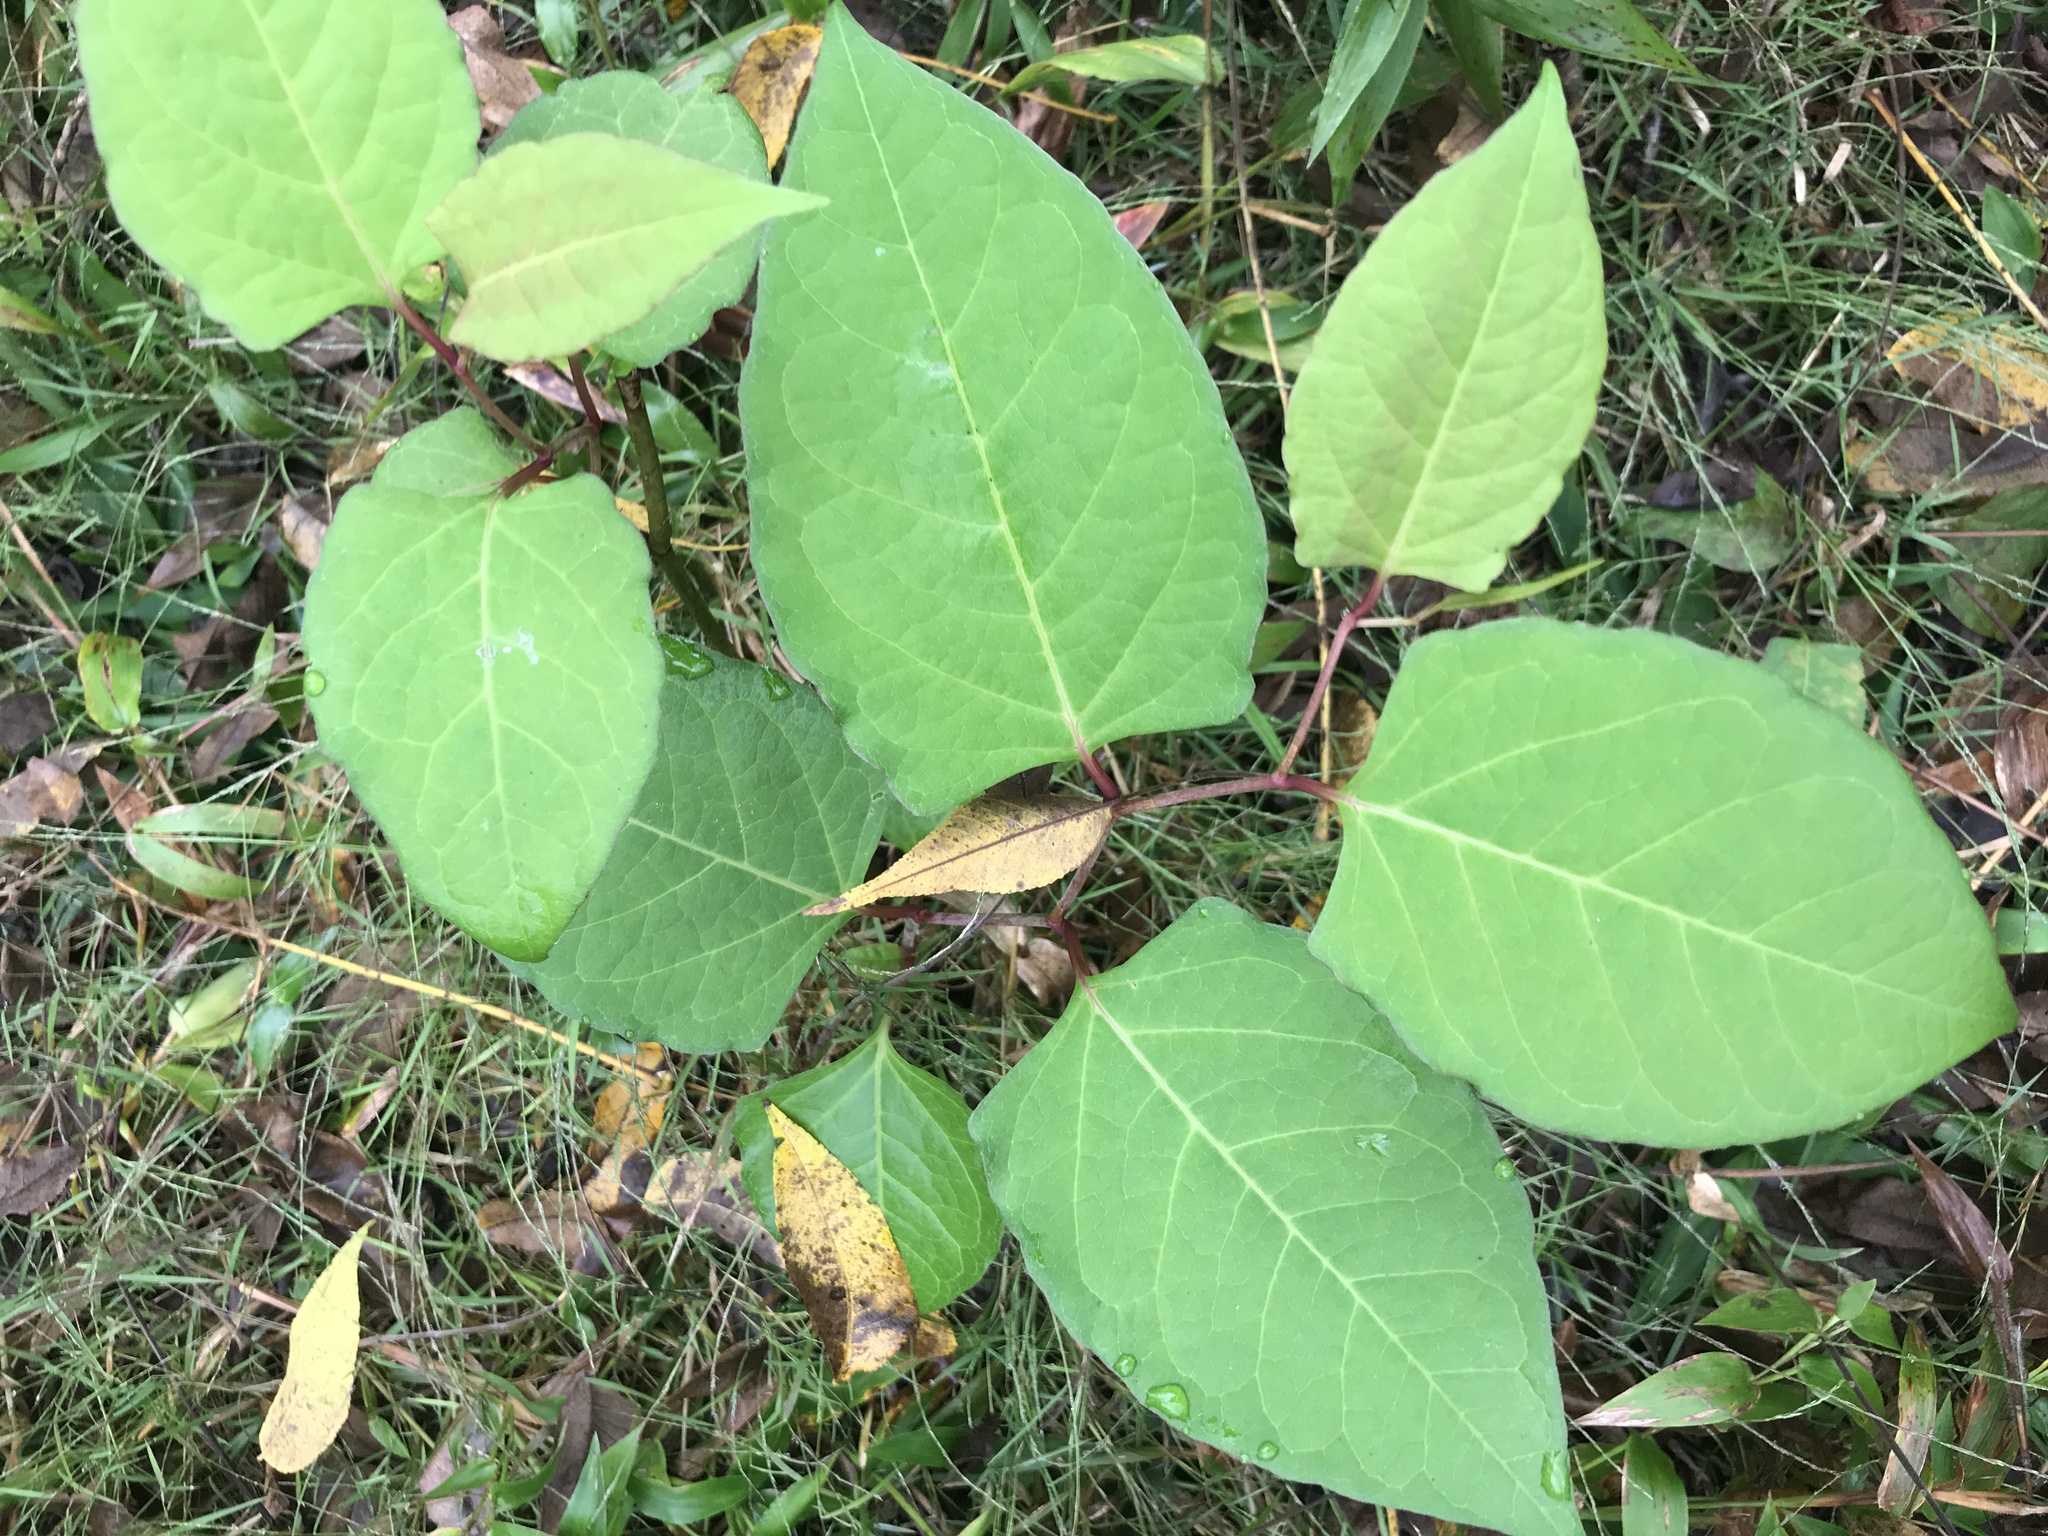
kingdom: Plantae
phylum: Tracheophyta
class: Magnoliopsida
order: Caryophyllales
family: Polygonaceae
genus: Reynoutria
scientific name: Reynoutria japonica
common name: Japanese knotweed
